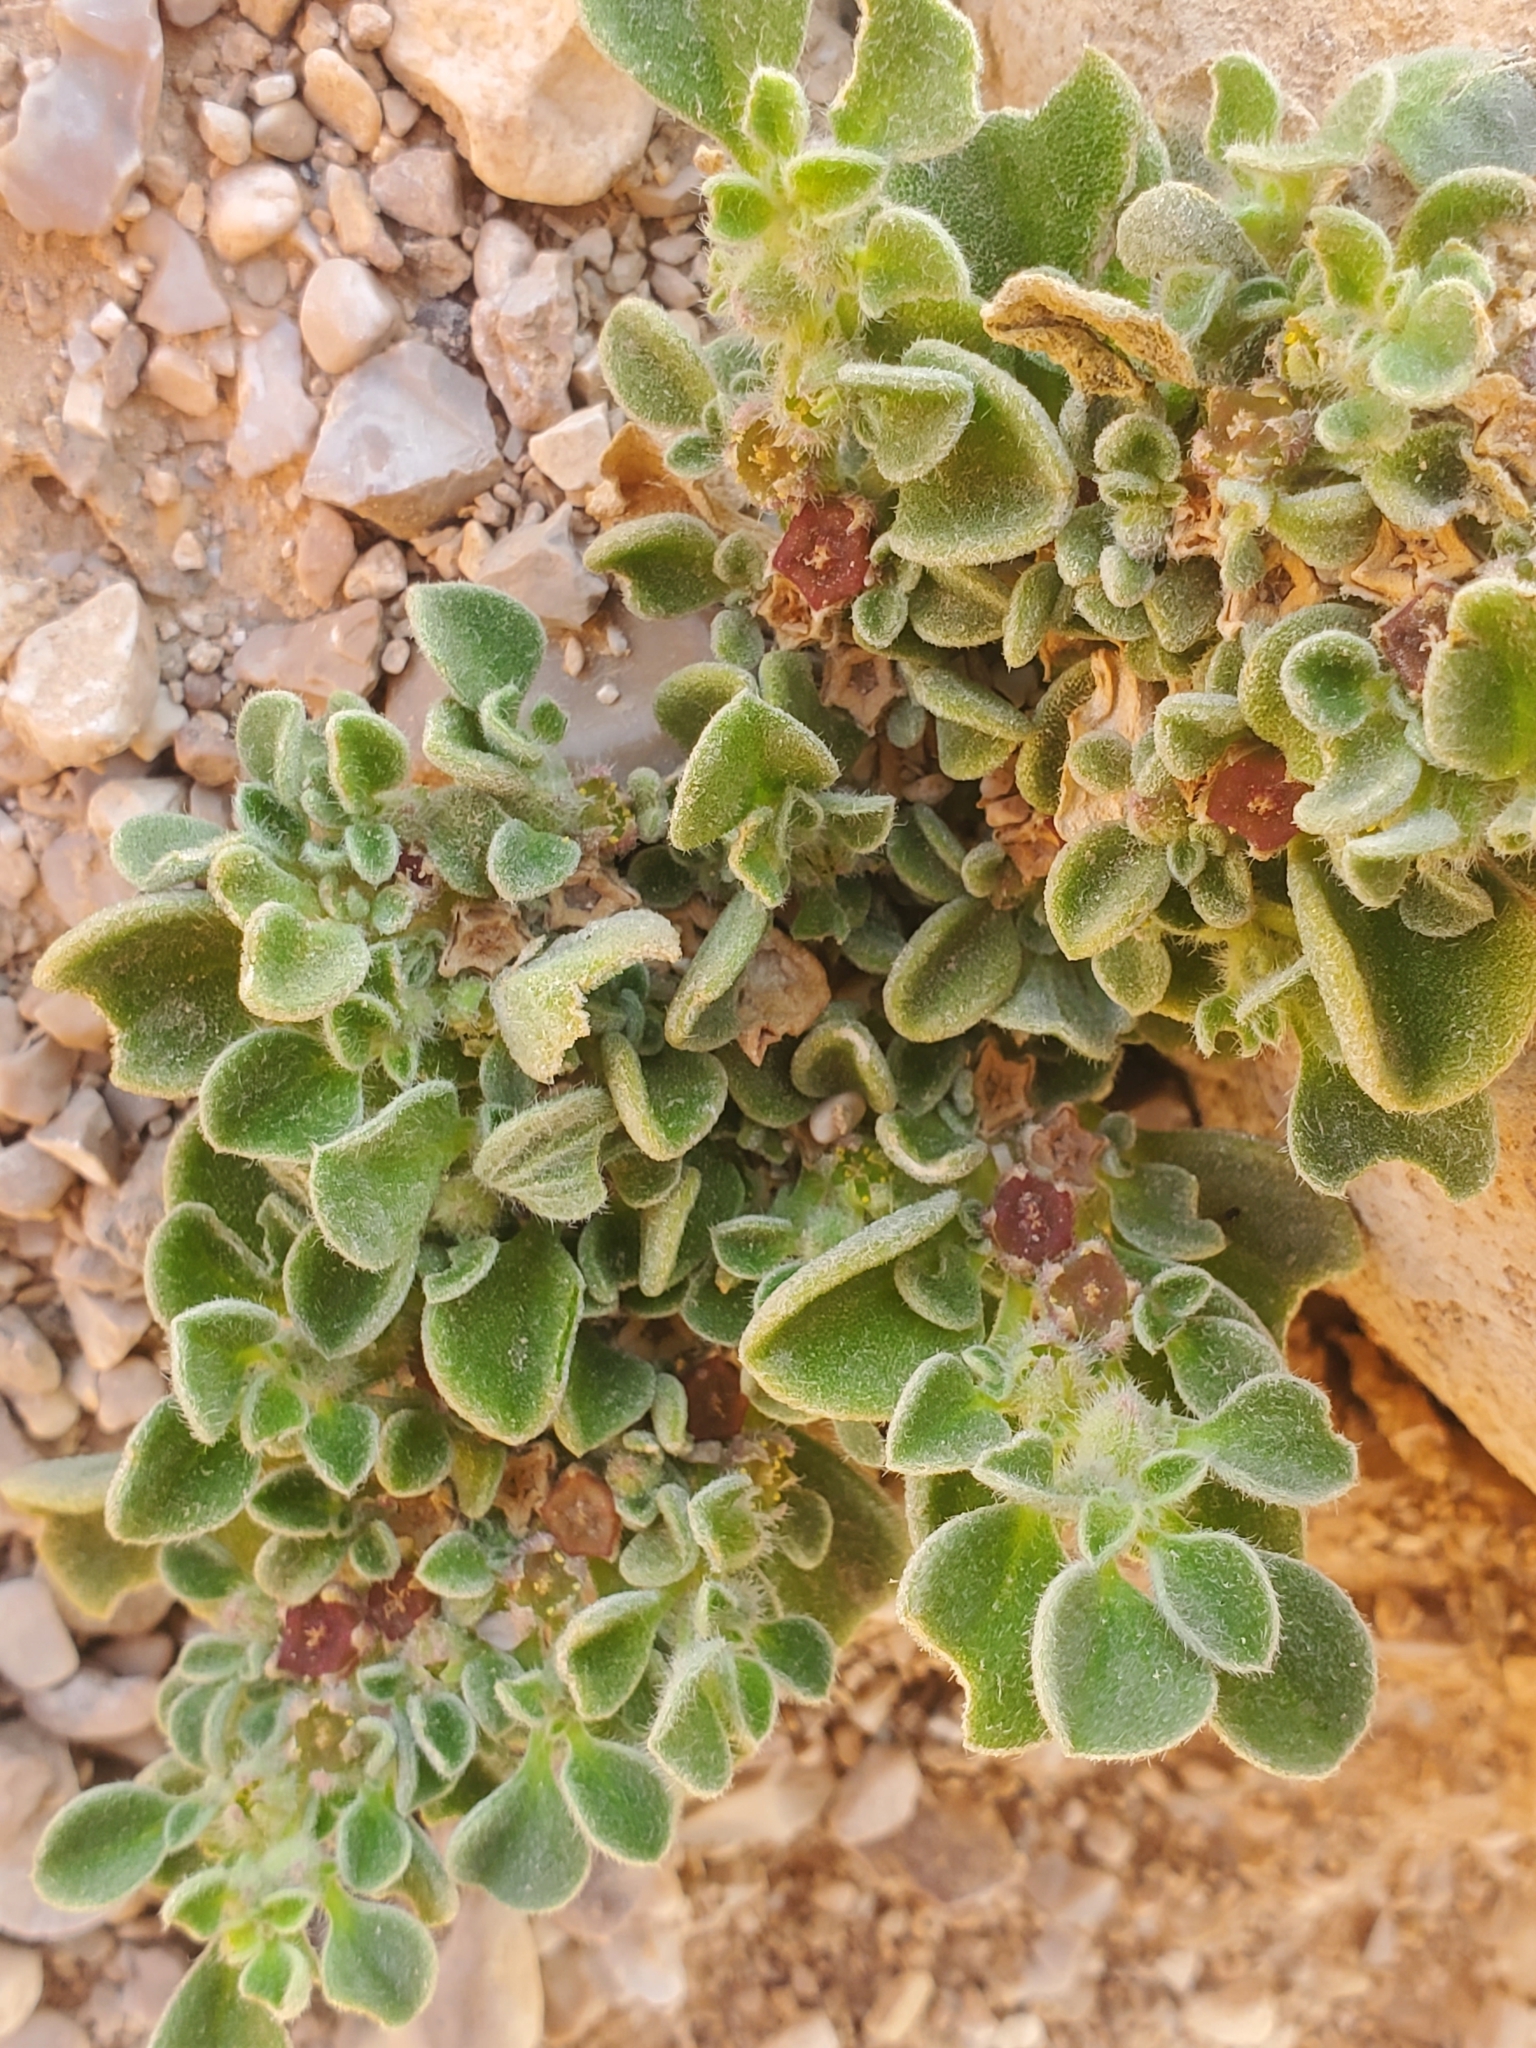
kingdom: Plantae
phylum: Tracheophyta
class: Magnoliopsida
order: Caryophyllales
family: Aizoaceae
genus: Aizoon
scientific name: Aizoon canariense
